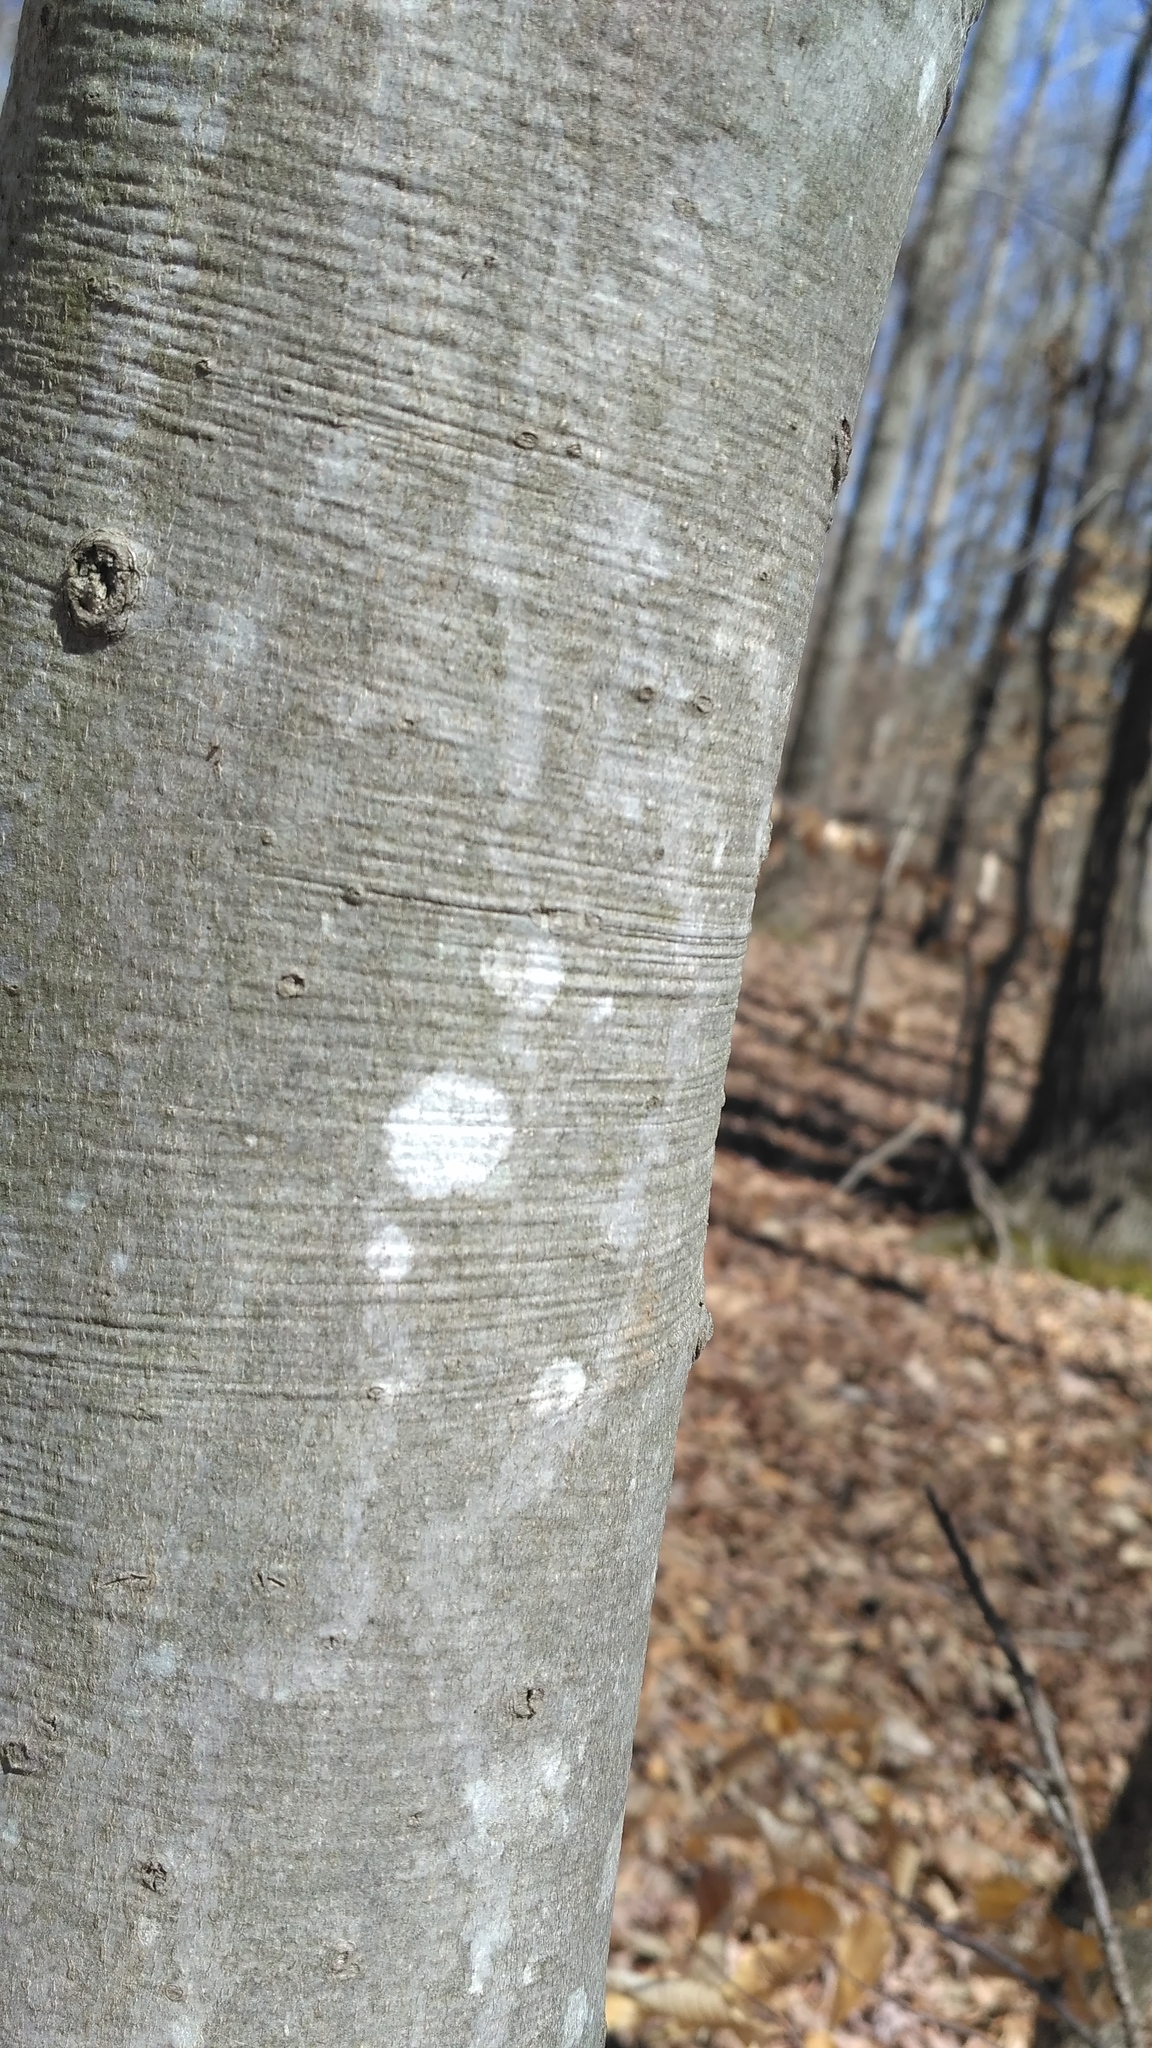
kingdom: Plantae
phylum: Tracheophyta
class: Magnoliopsida
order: Fagales
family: Fagaceae
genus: Fagus
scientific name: Fagus grandifolia
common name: American beech
